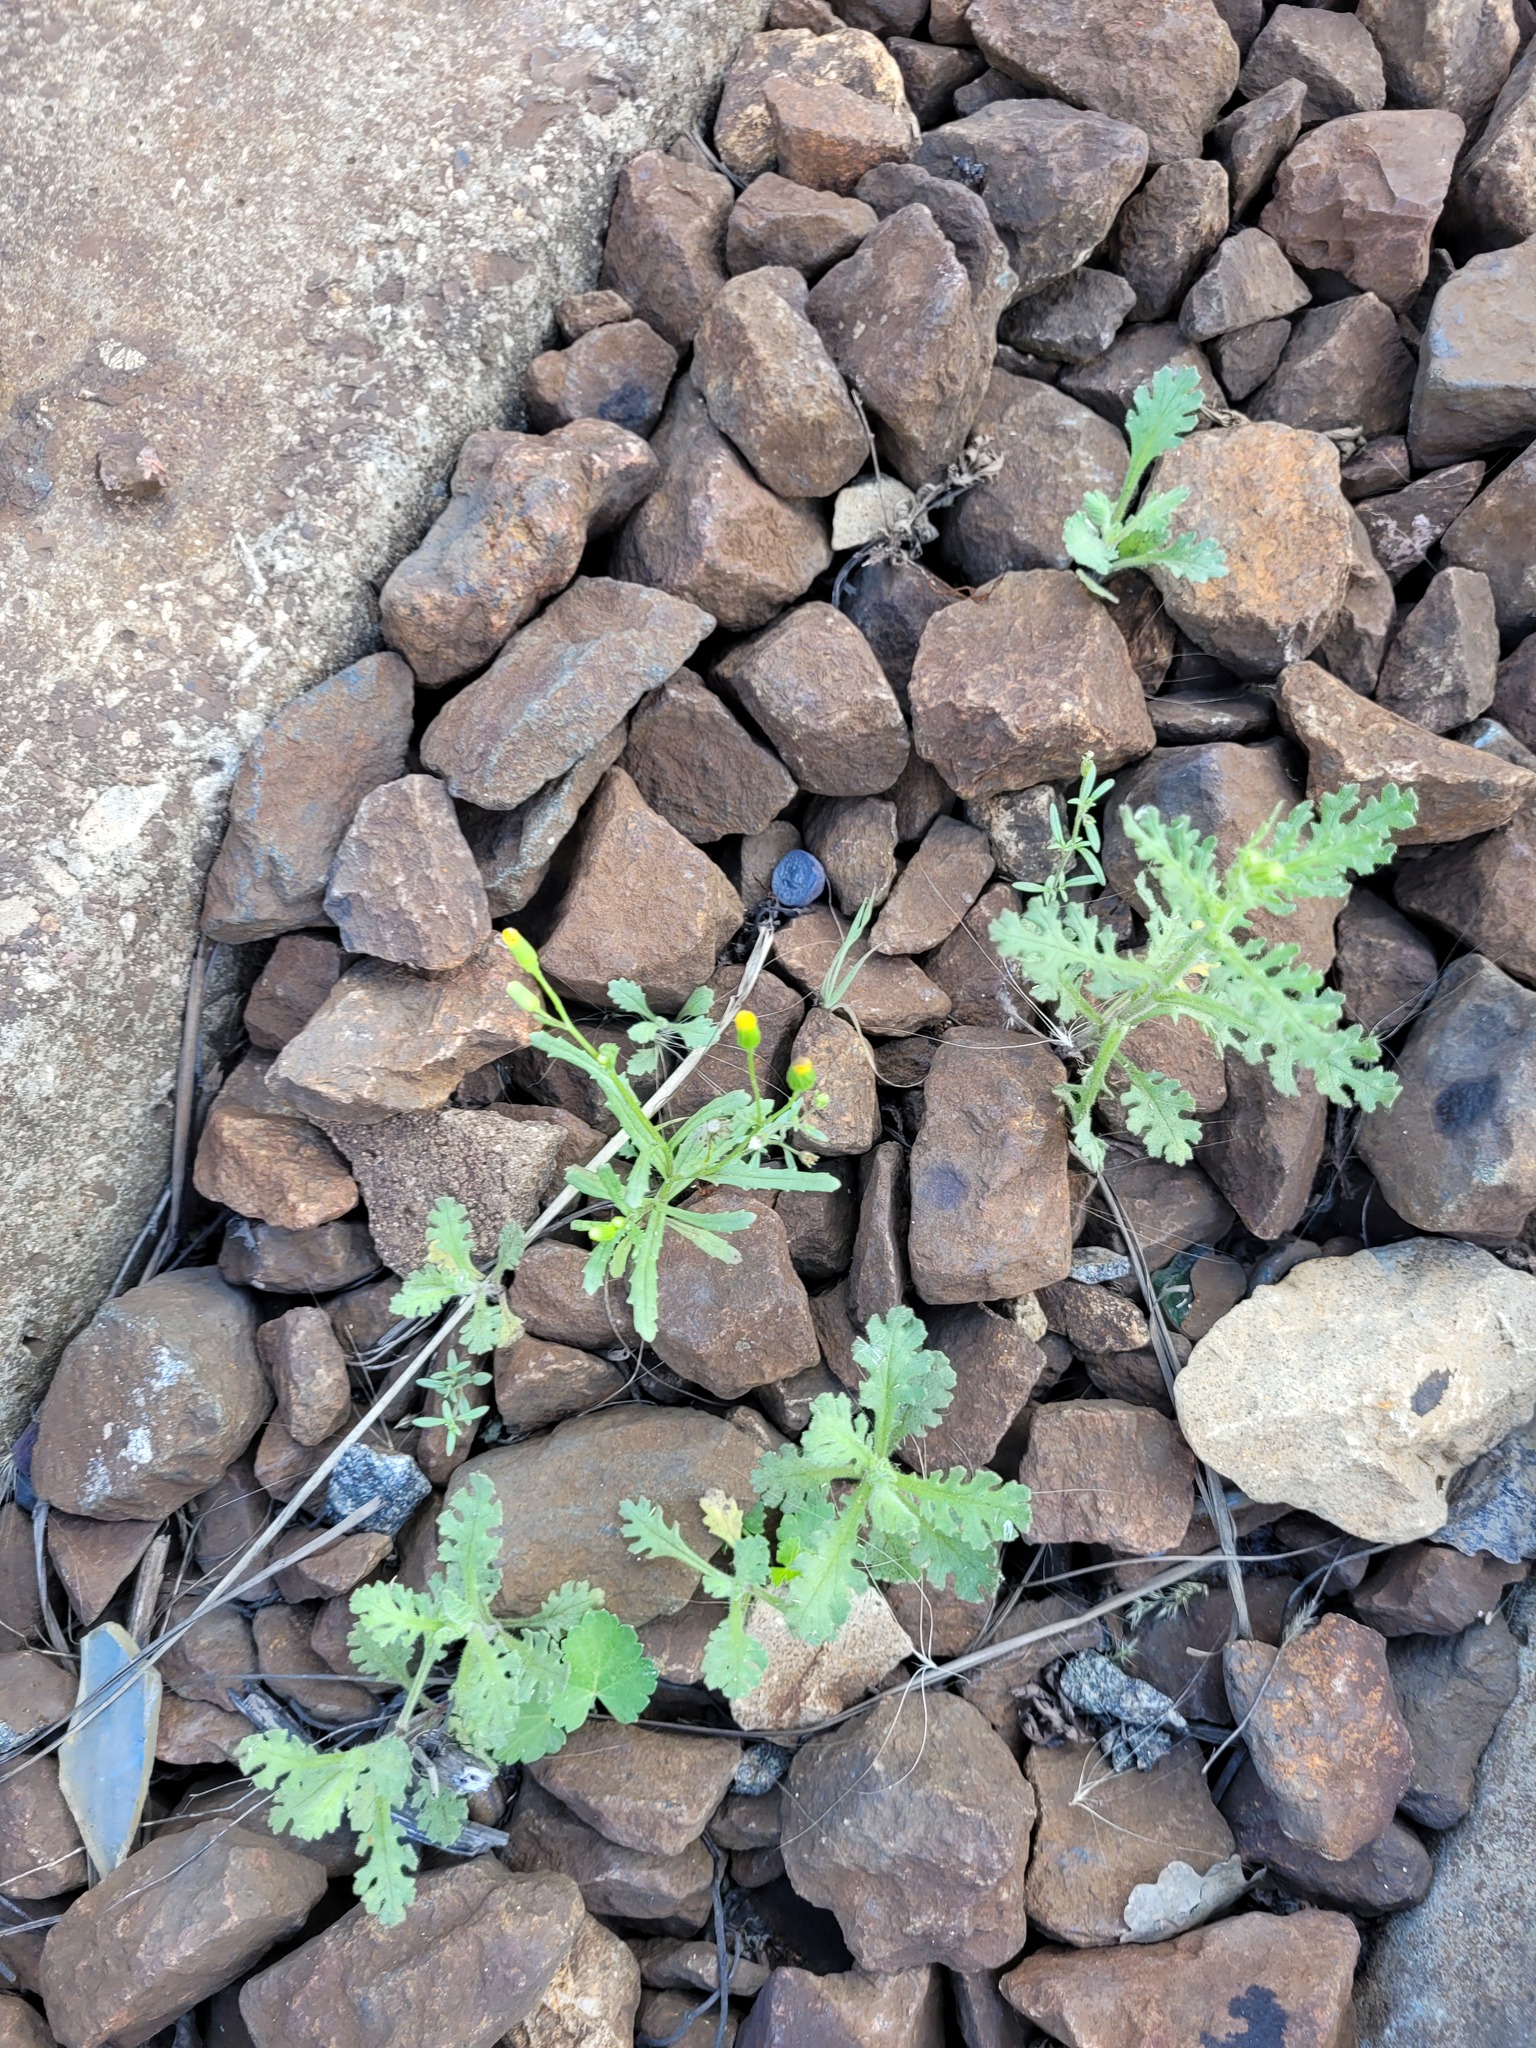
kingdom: Plantae
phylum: Tracheophyta
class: Magnoliopsida
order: Asterales
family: Asteraceae
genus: Senecio
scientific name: Senecio dubitabilis
